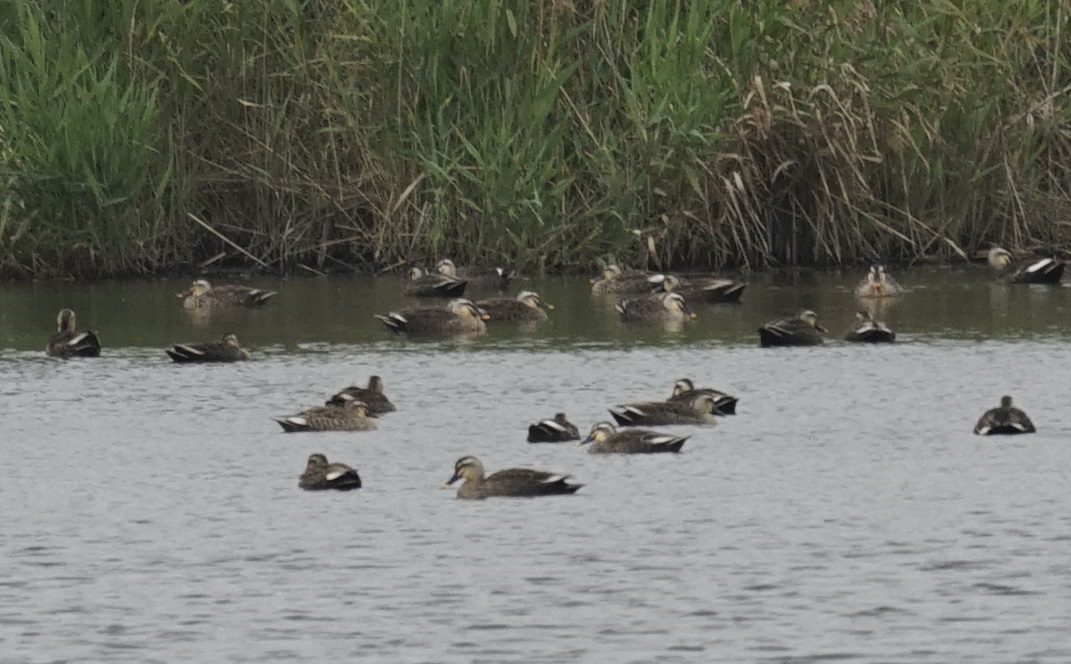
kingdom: Animalia
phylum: Chordata
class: Aves
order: Anseriformes
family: Anatidae
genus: Anas
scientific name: Anas zonorhyncha
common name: Eastern spot-billed duck
